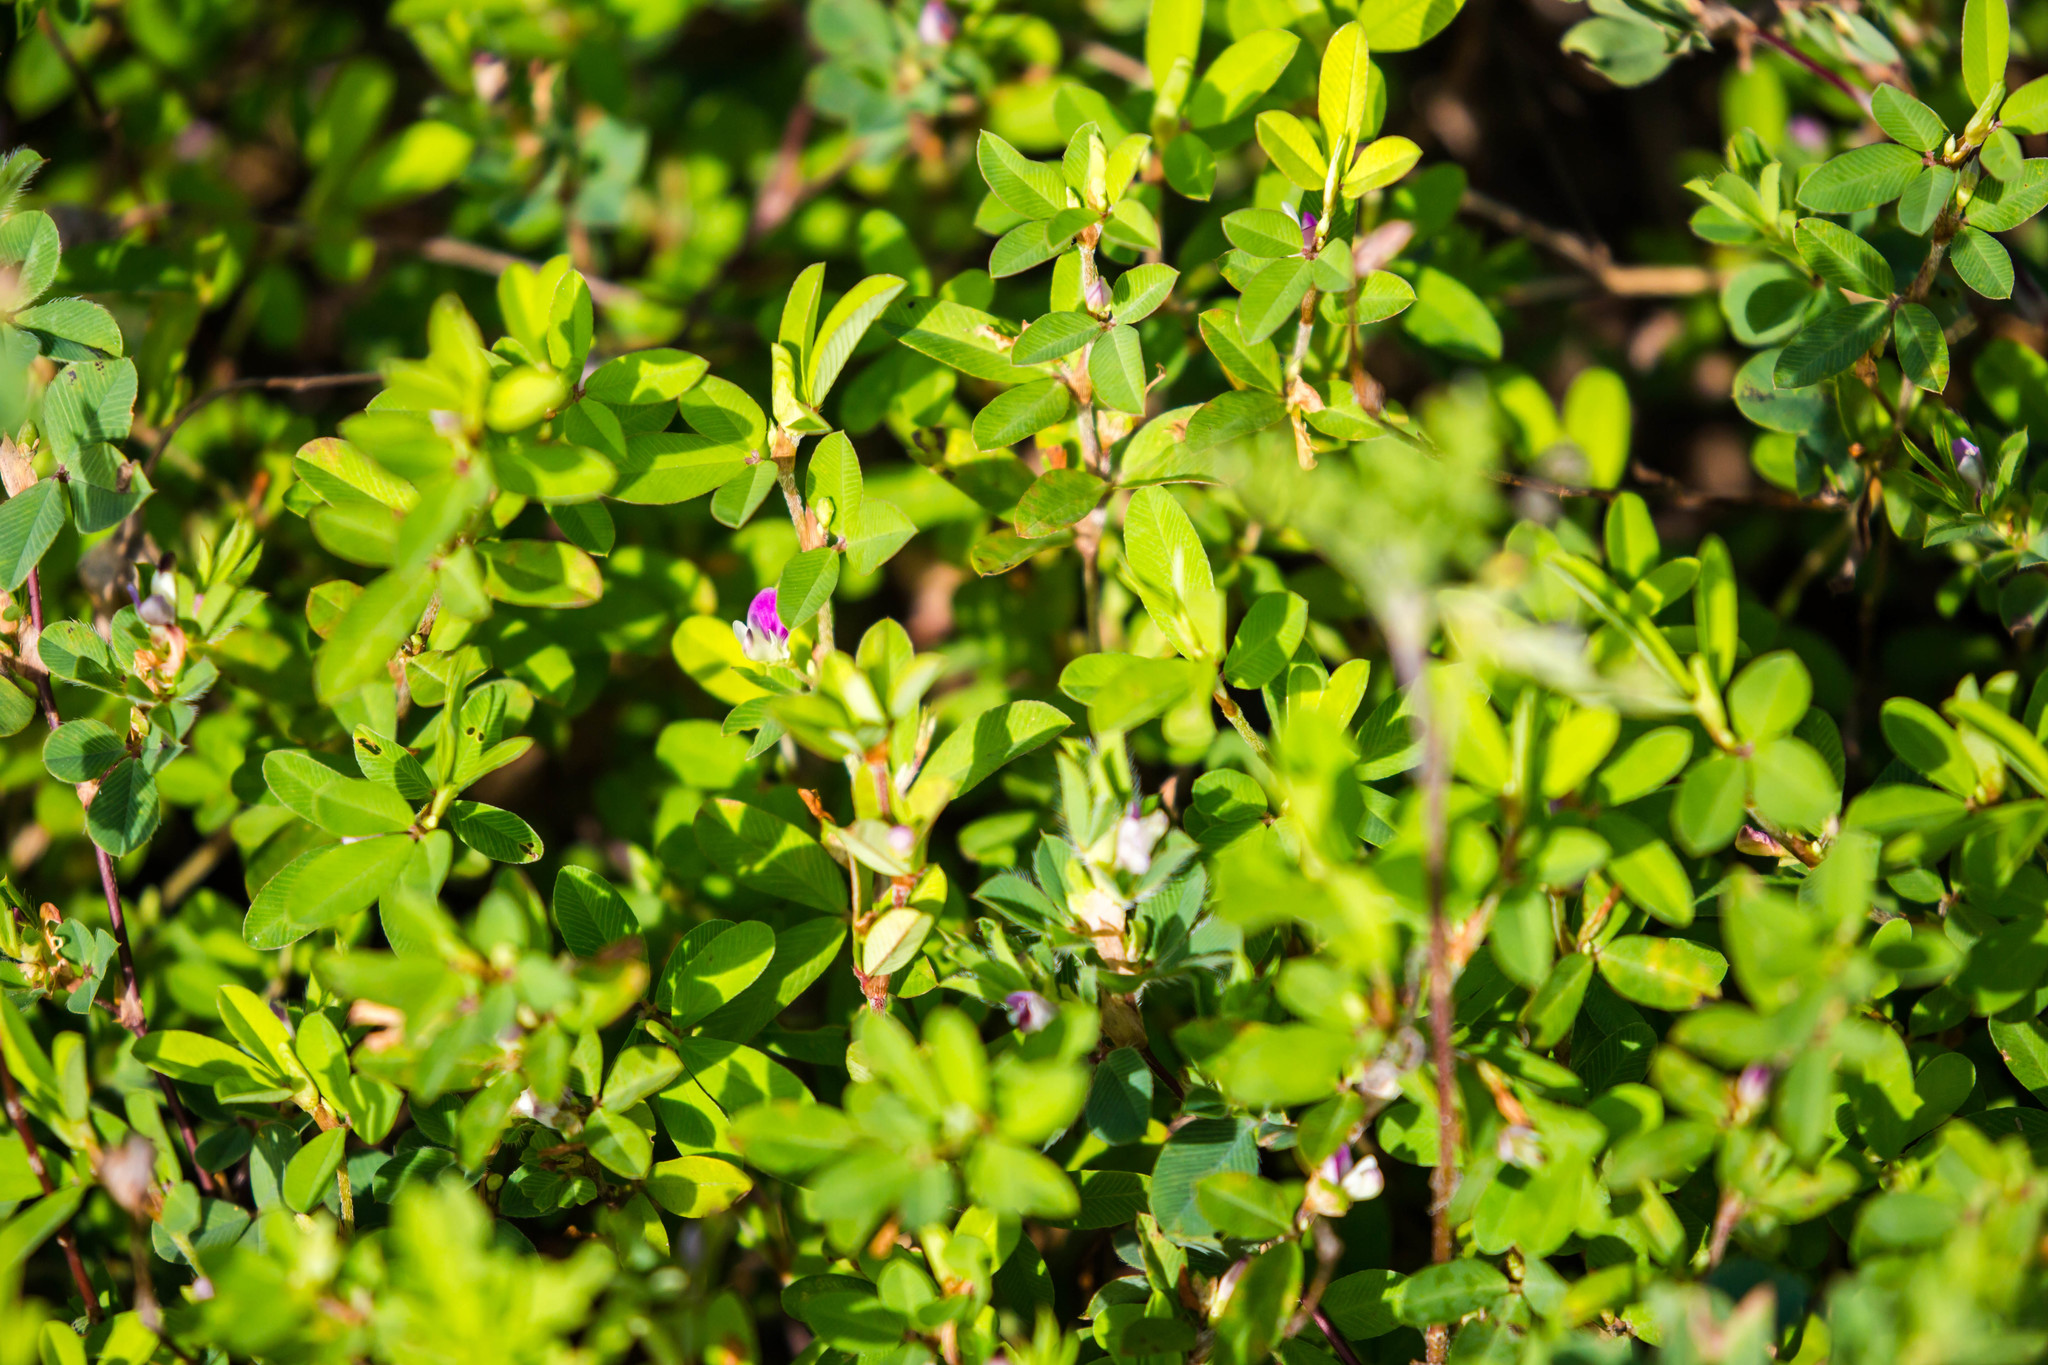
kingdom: Plantae
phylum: Tracheophyta
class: Magnoliopsida
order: Fabales
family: Fabaceae
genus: Kummerowia
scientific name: Kummerowia striata
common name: Japanese clover
